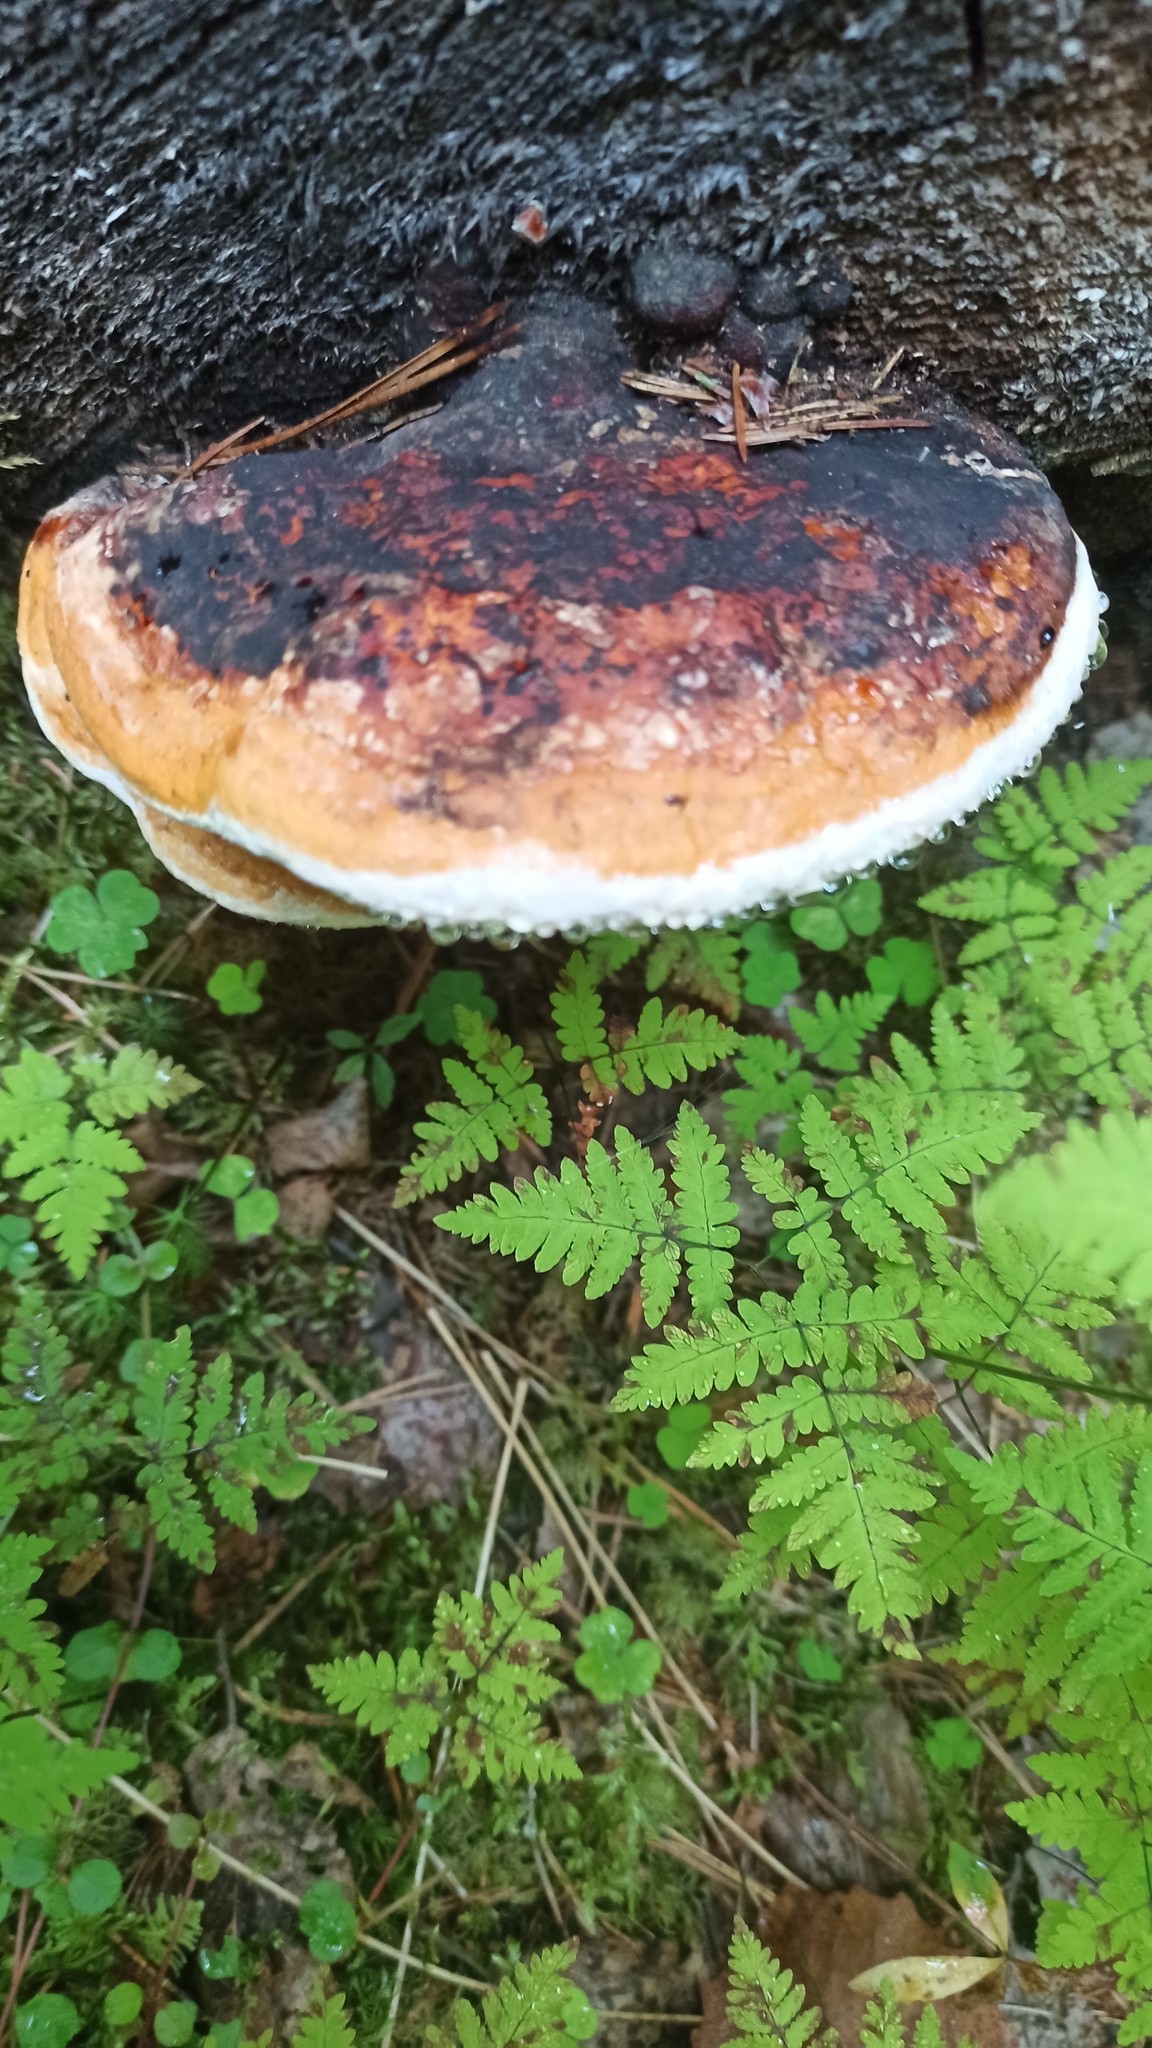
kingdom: Fungi
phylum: Basidiomycota
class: Agaricomycetes
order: Polyporales
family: Fomitopsidaceae
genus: Fomitopsis
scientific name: Fomitopsis pinicola
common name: Red-belted bracket
